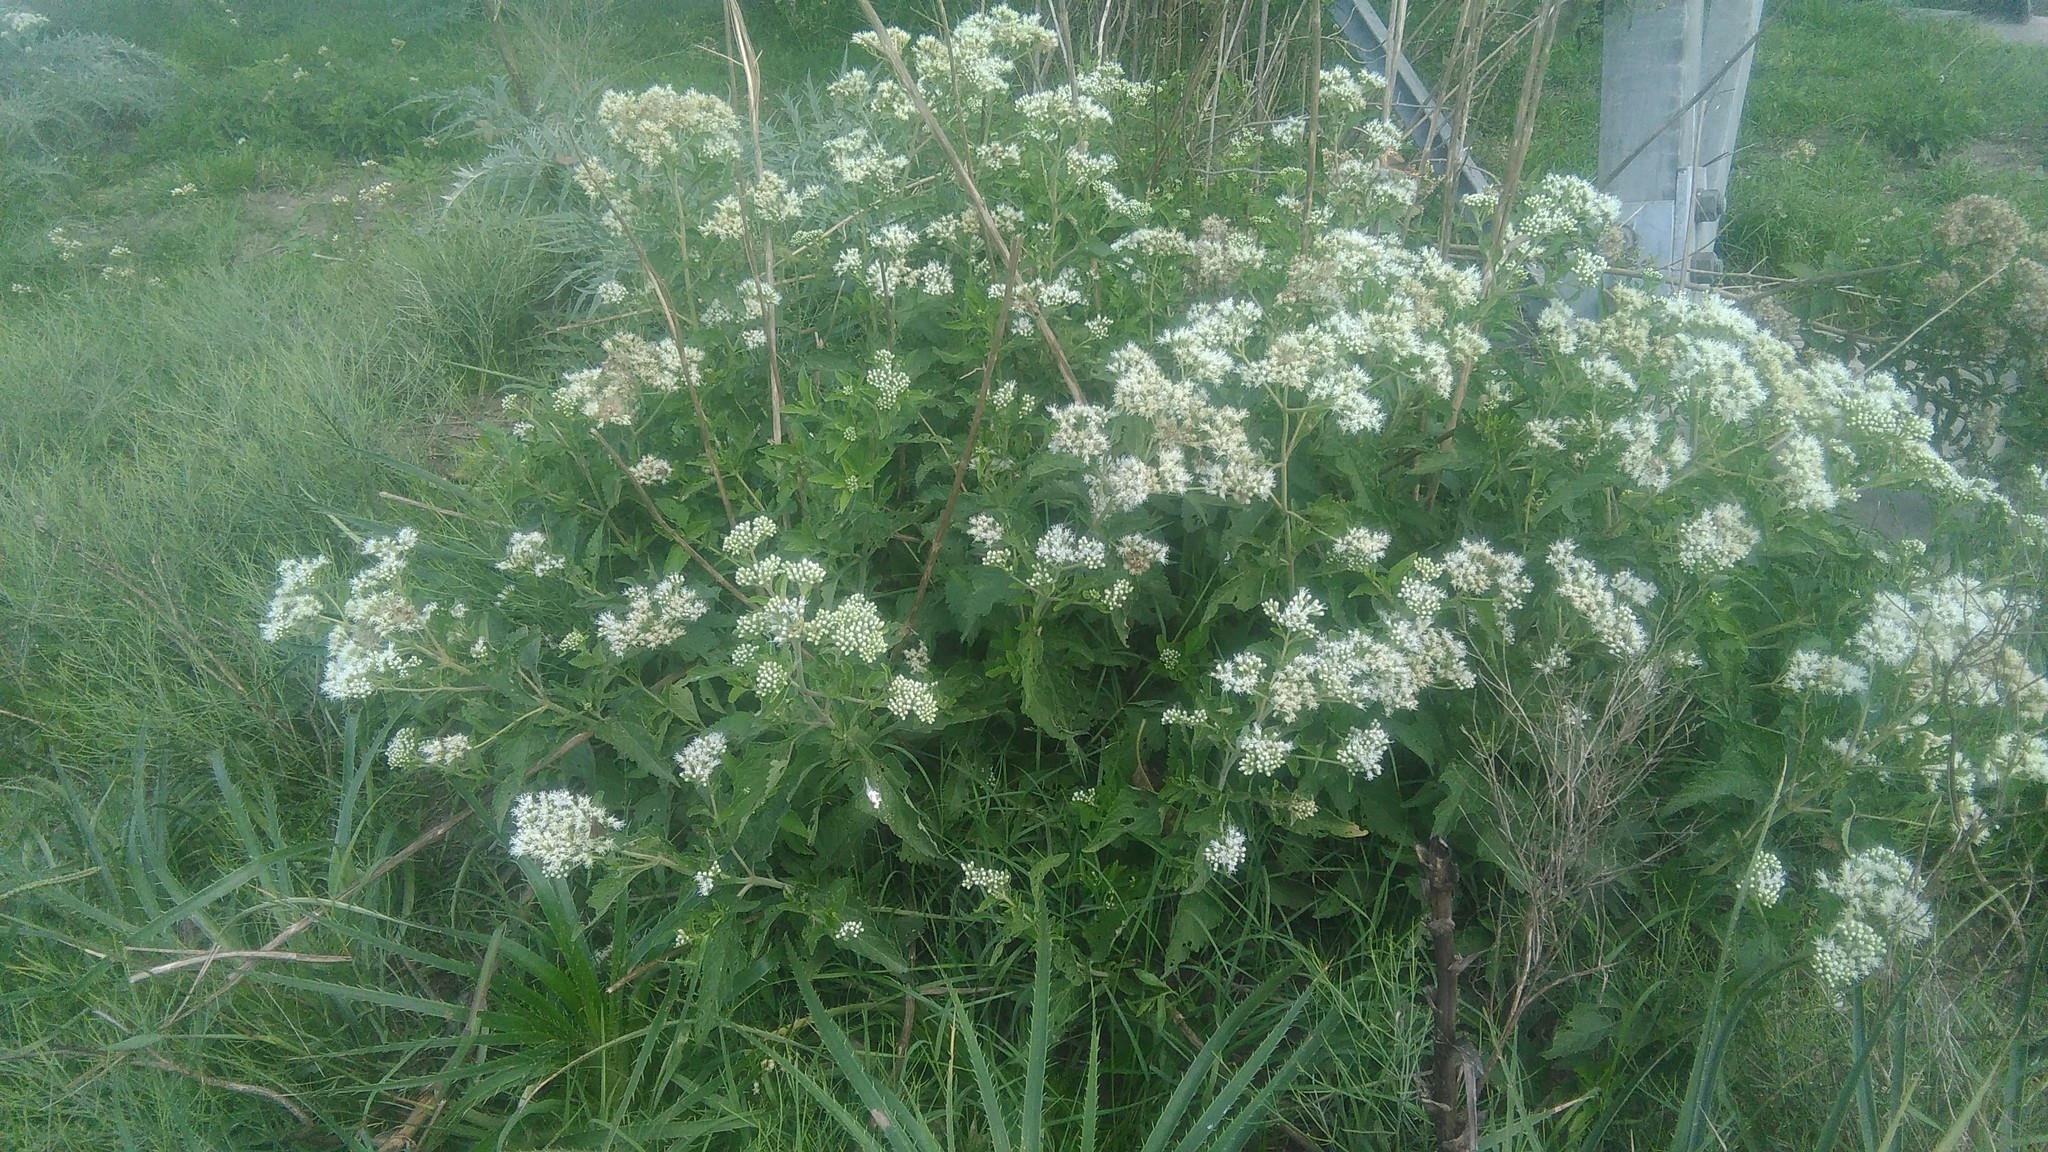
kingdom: Plantae
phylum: Tracheophyta
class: Magnoliopsida
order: Asterales
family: Asteraceae
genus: Austroeupatorium
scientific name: Austroeupatorium inulifolium
